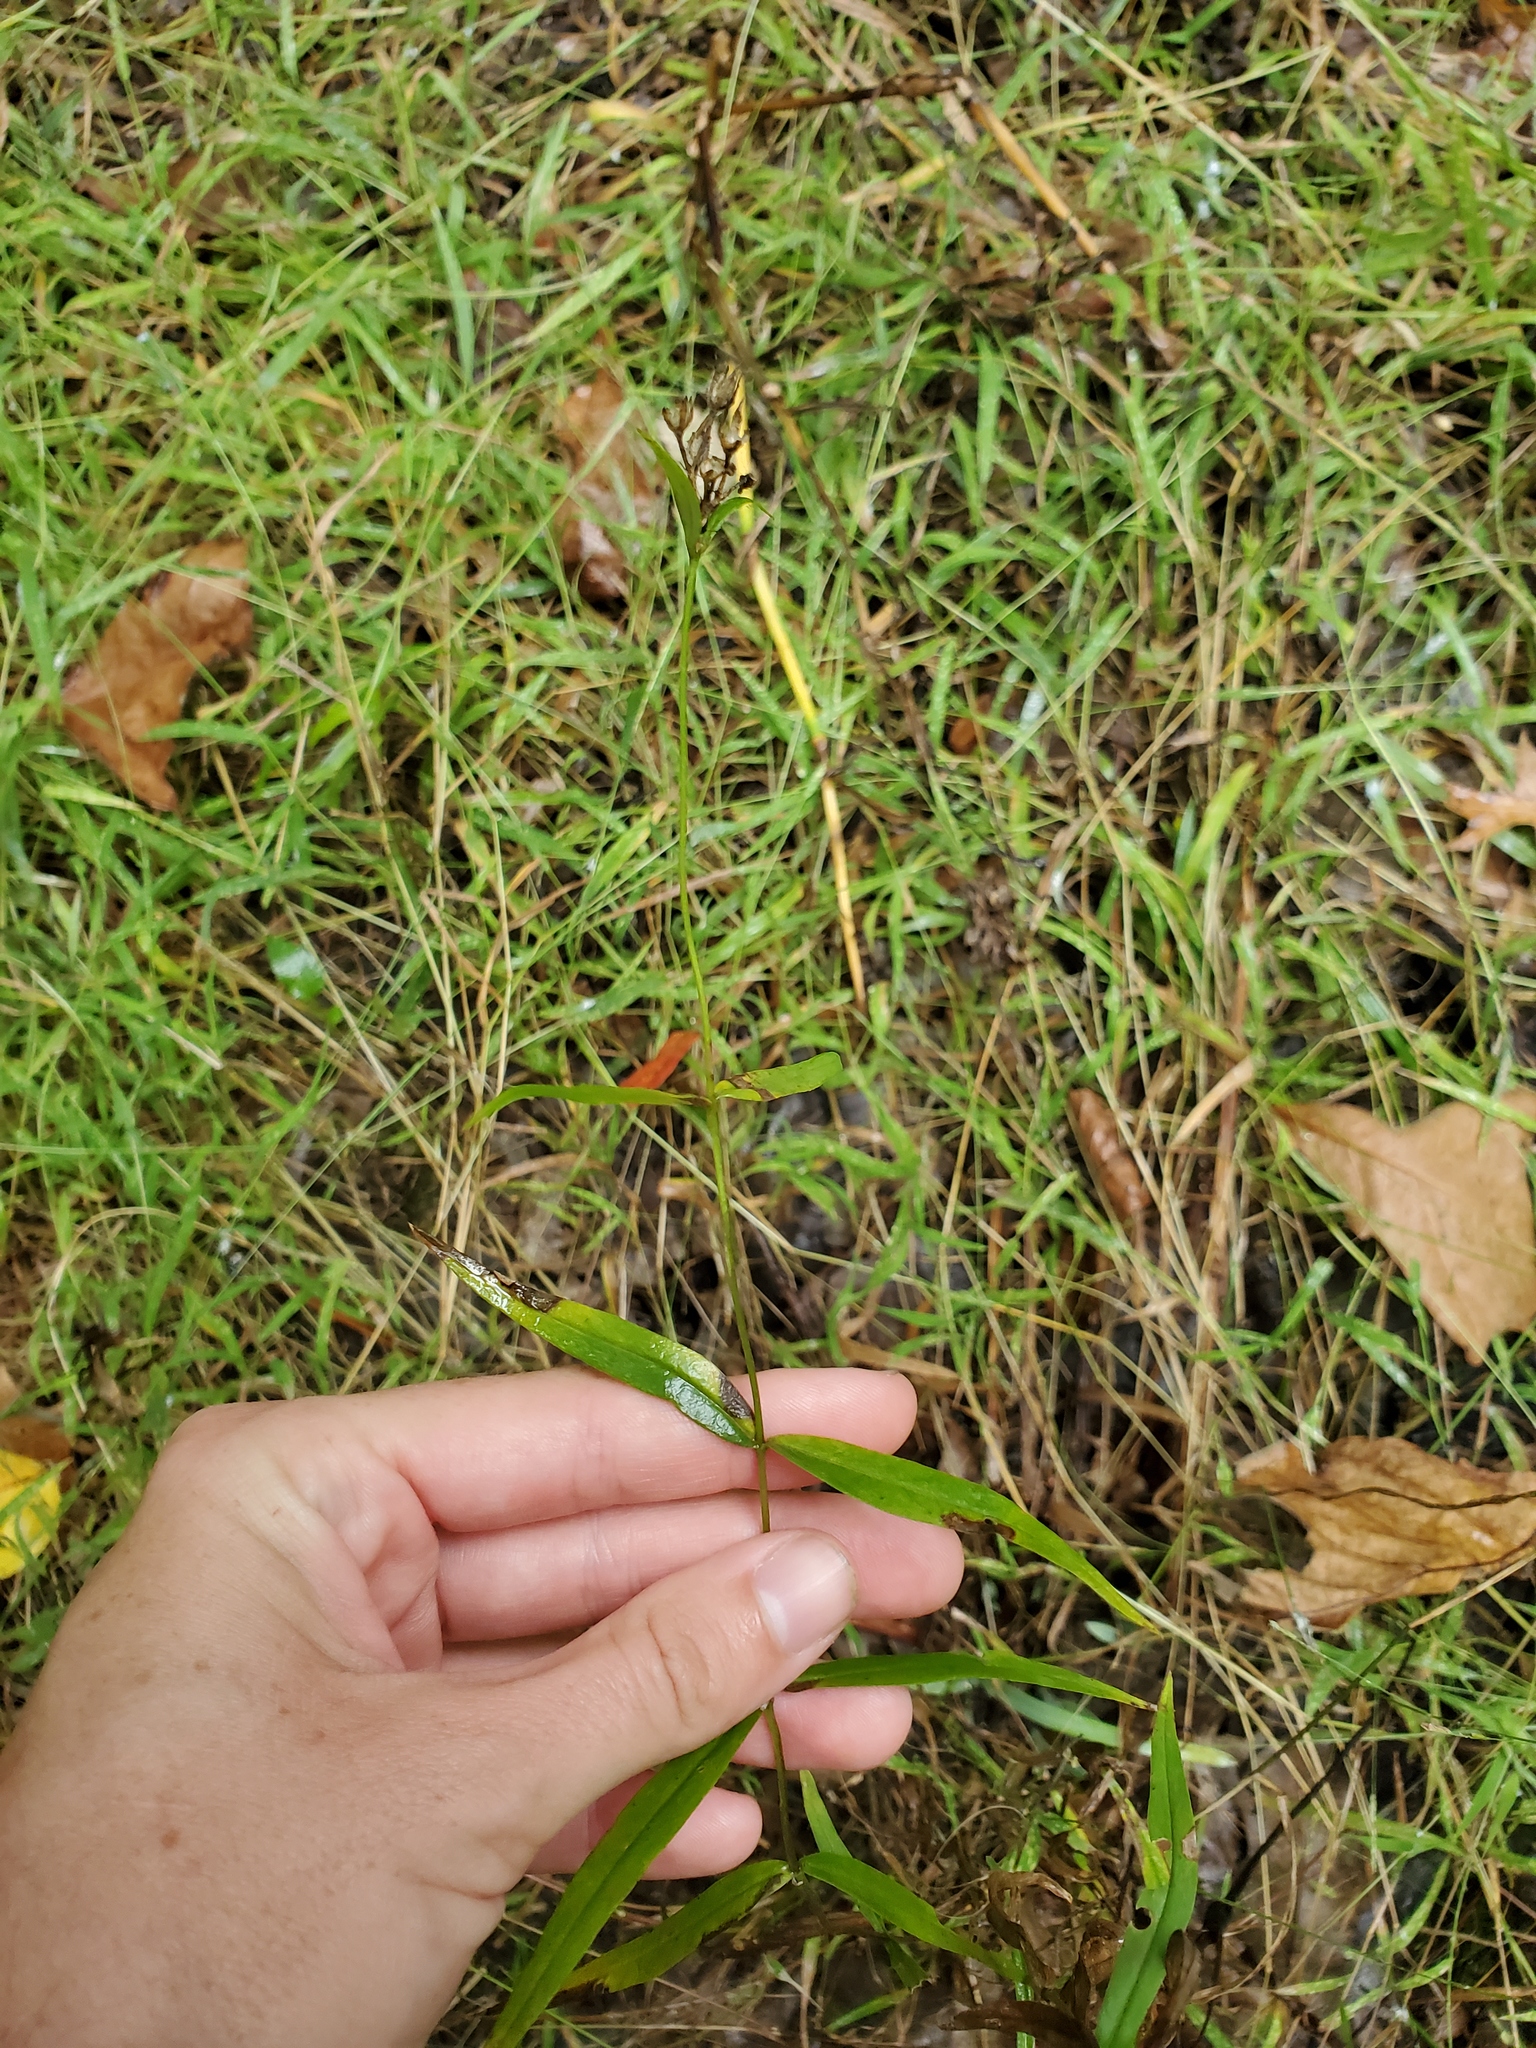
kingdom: Plantae
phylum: Tracheophyta
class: Magnoliopsida
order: Ericales
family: Polemoniaceae
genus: Phlox
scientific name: Phlox glaberrima
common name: Smooth phlox
